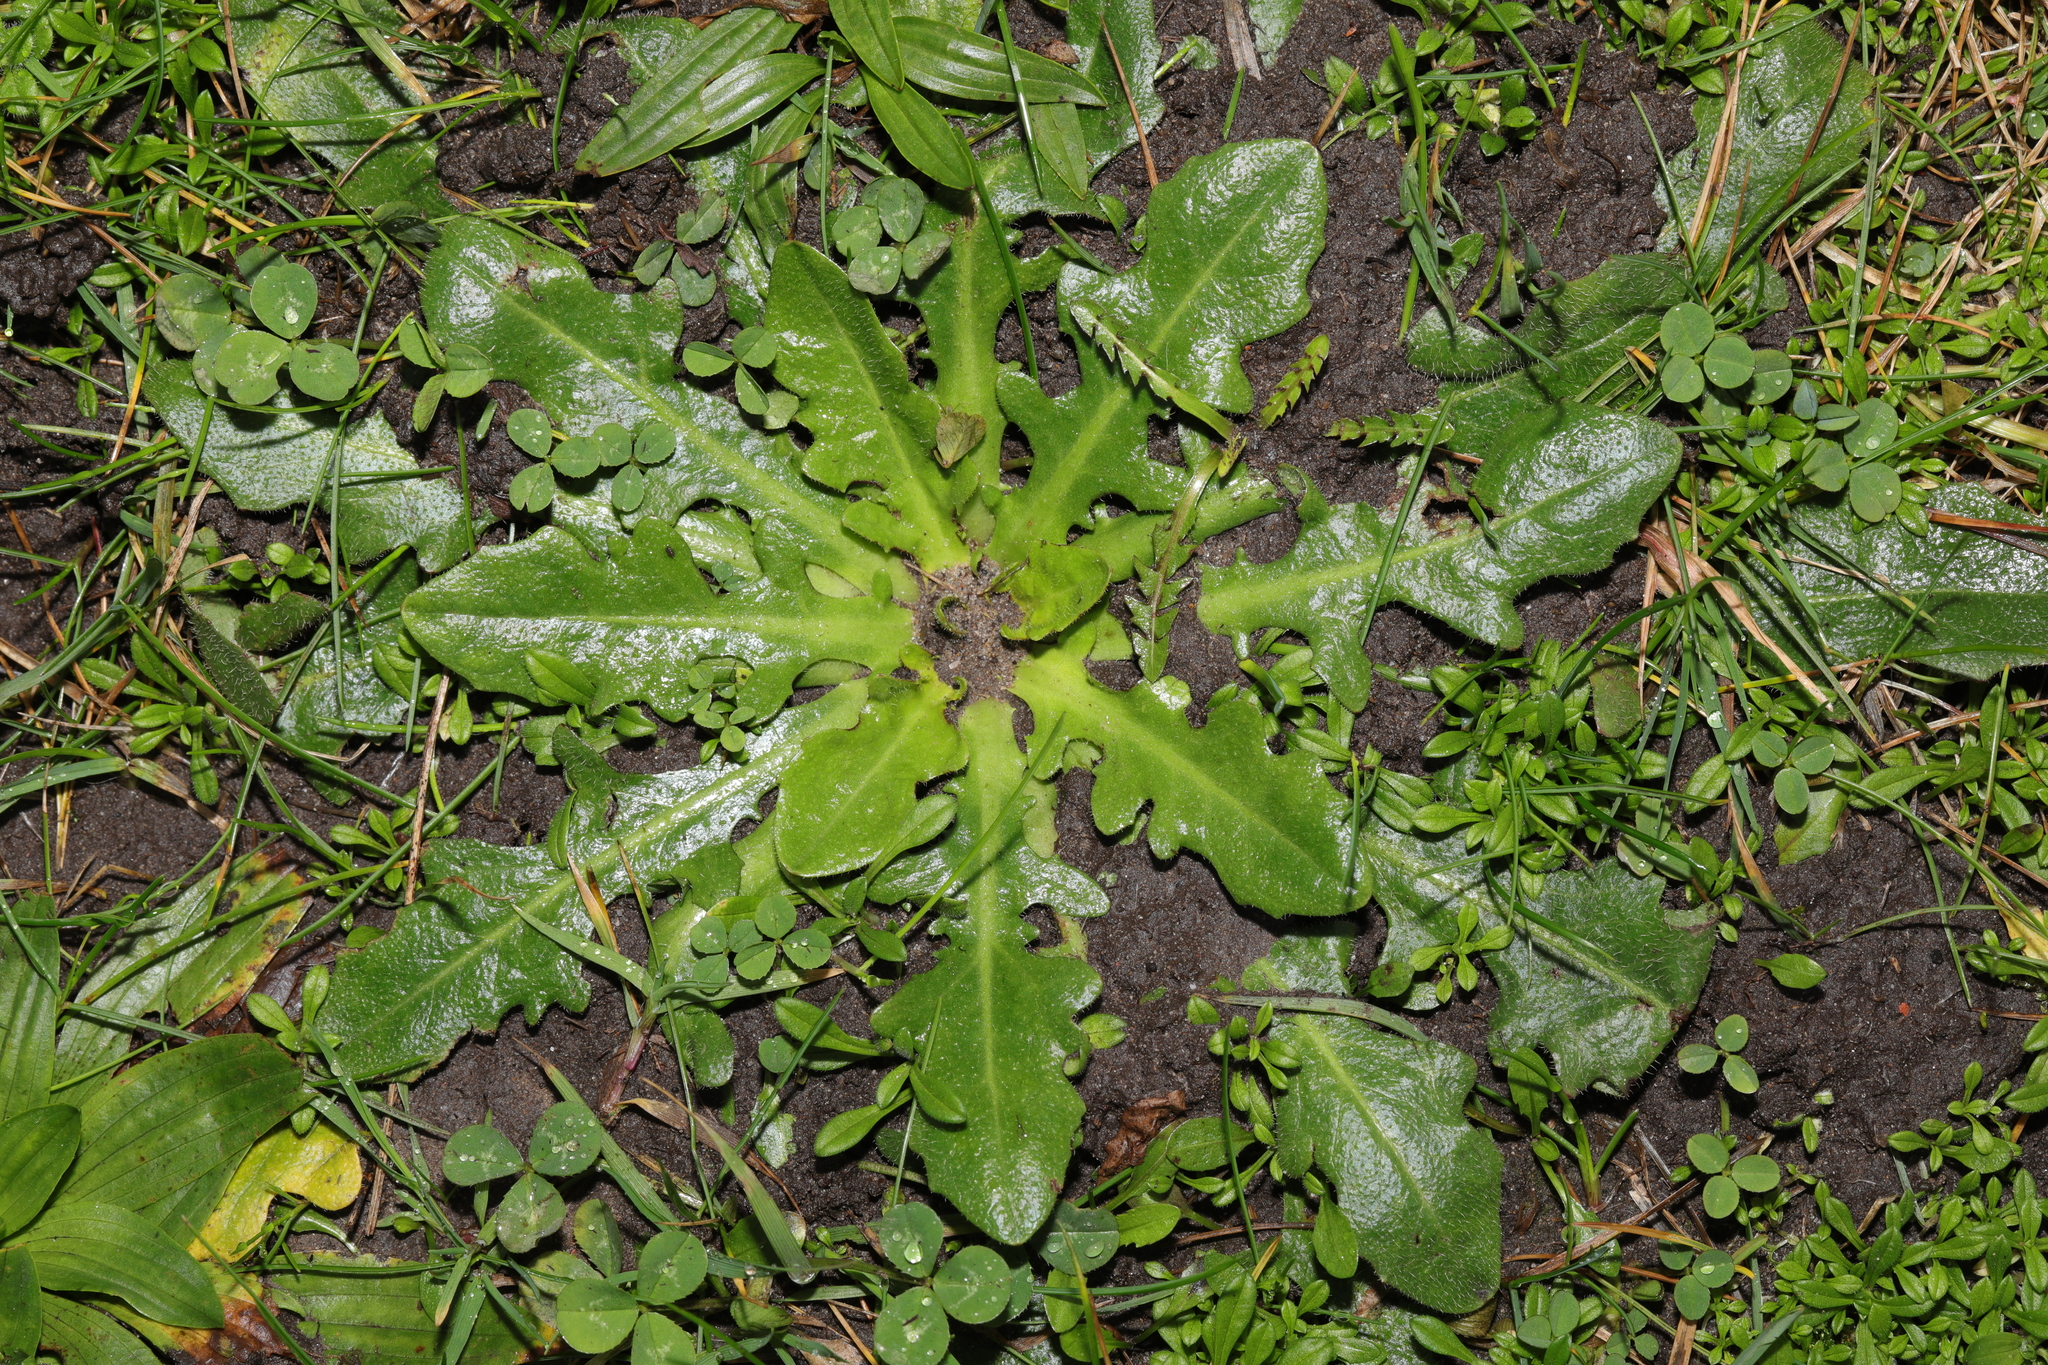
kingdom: Plantae
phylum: Tracheophyta
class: Magnoliopsida
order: Asterales
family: Asteraceae
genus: Hypochaeris
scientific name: Hypochaeris radicata
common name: Flatweed
